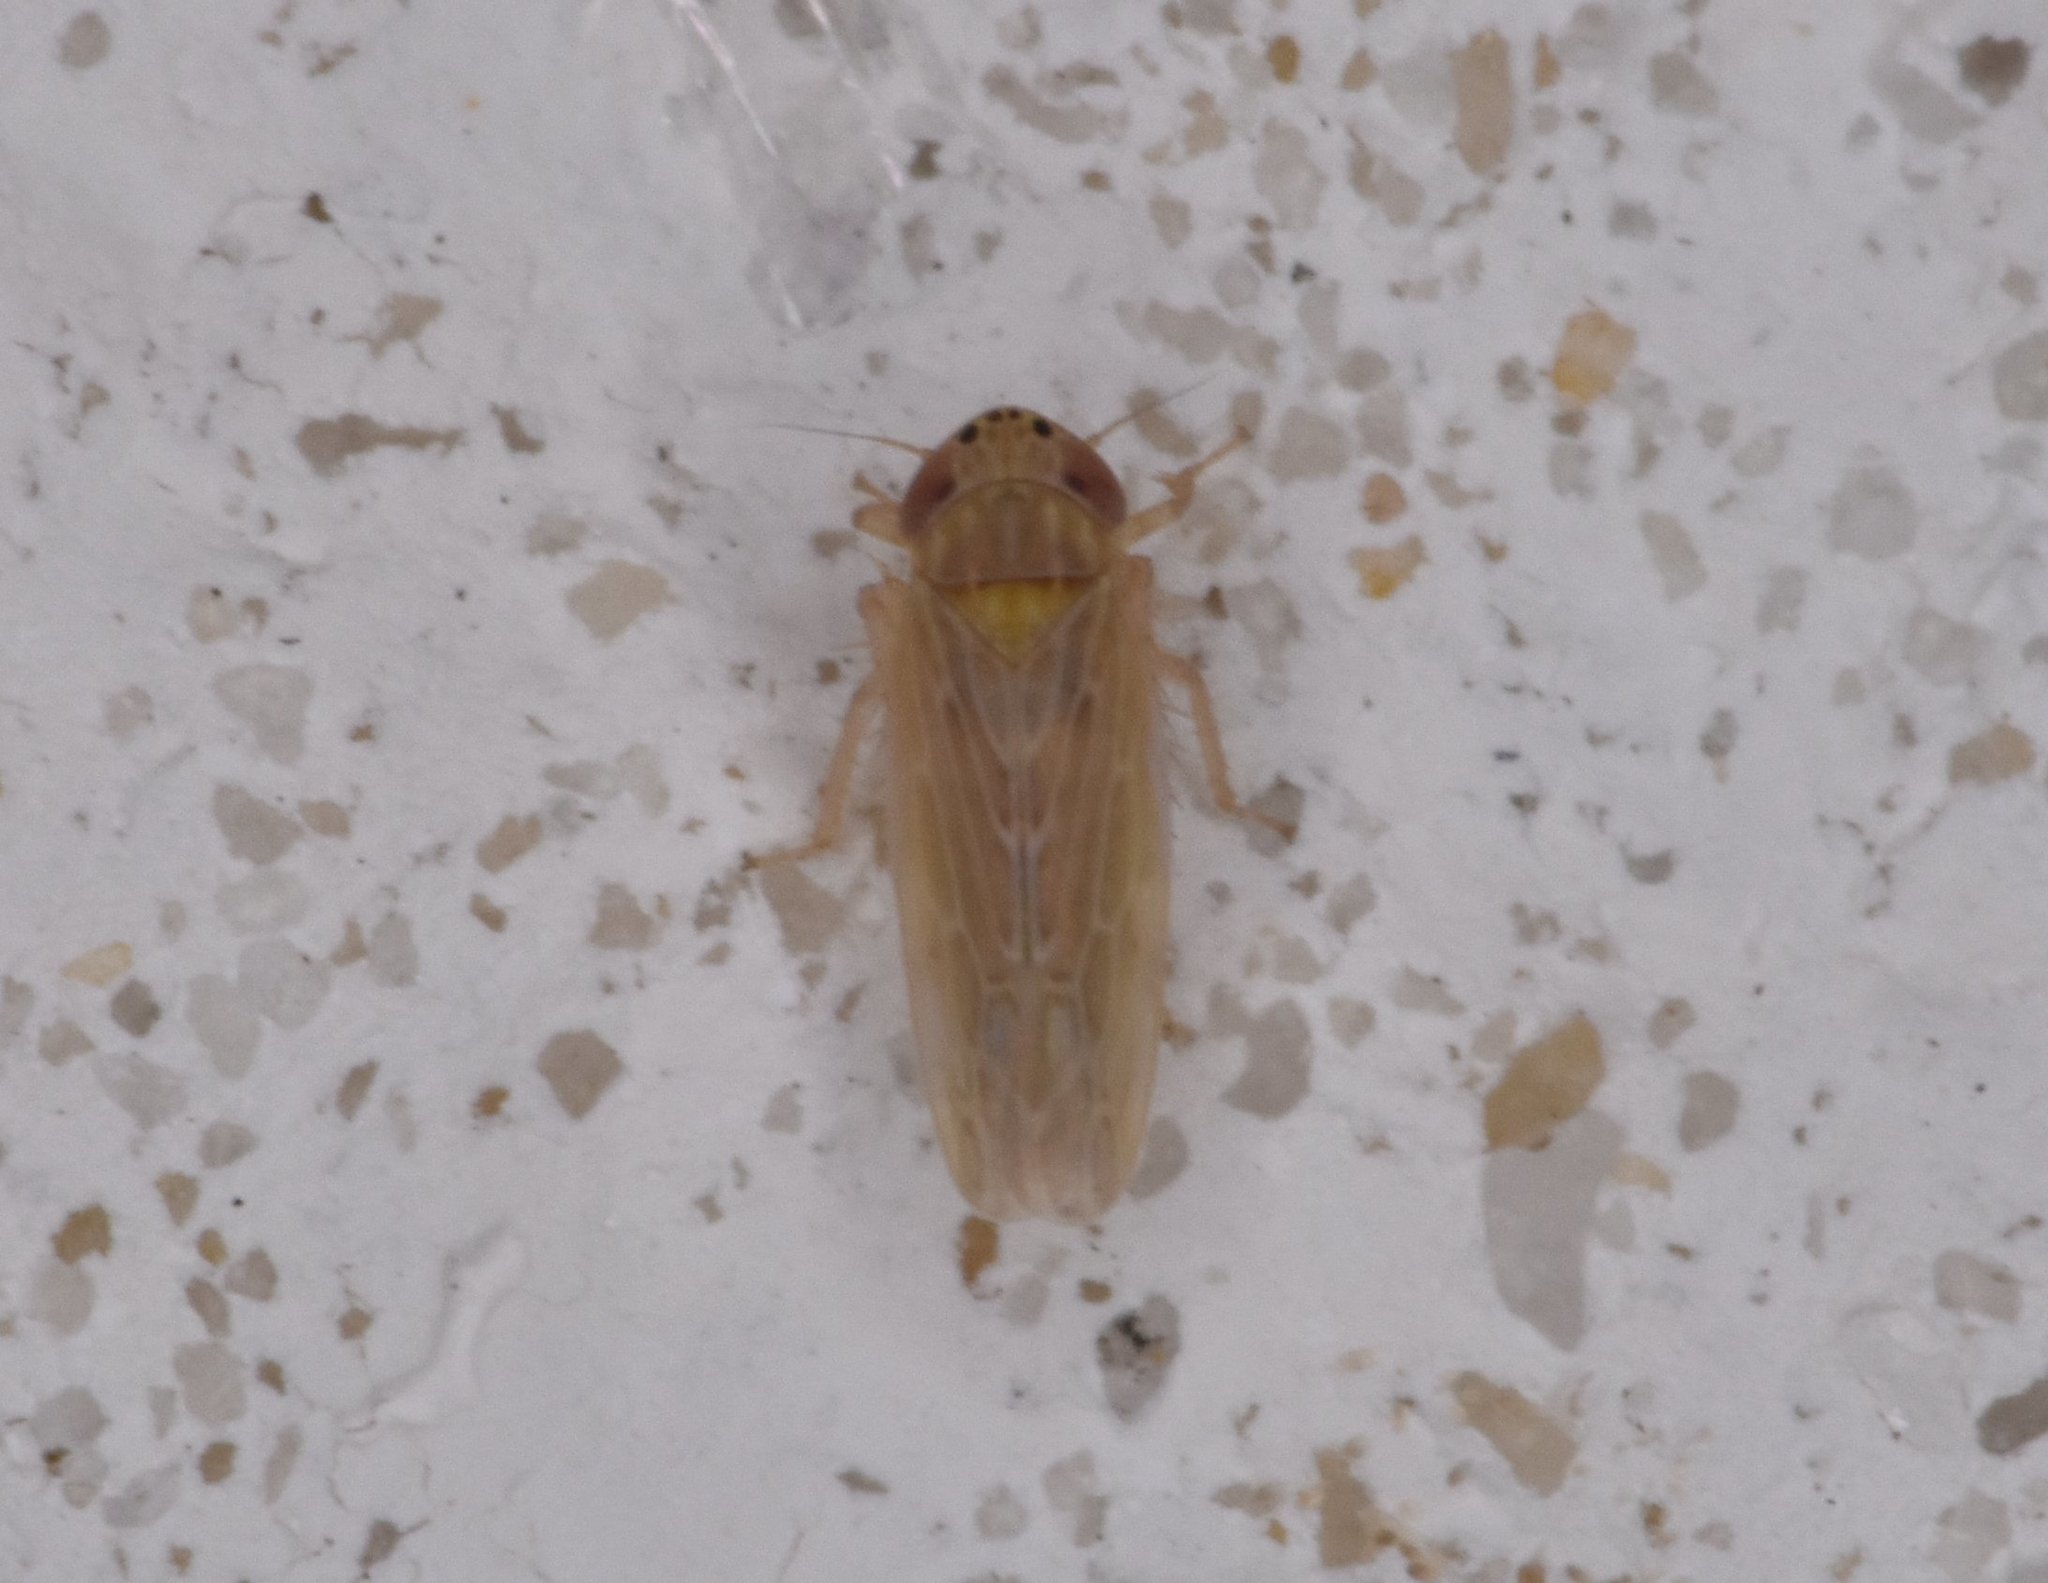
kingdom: Animalia
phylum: Arthropoda
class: Insecta
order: Hemiptera
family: Cicadellidae
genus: Graminella
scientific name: Graminella sonora
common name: Lesser lawn leafhopper
